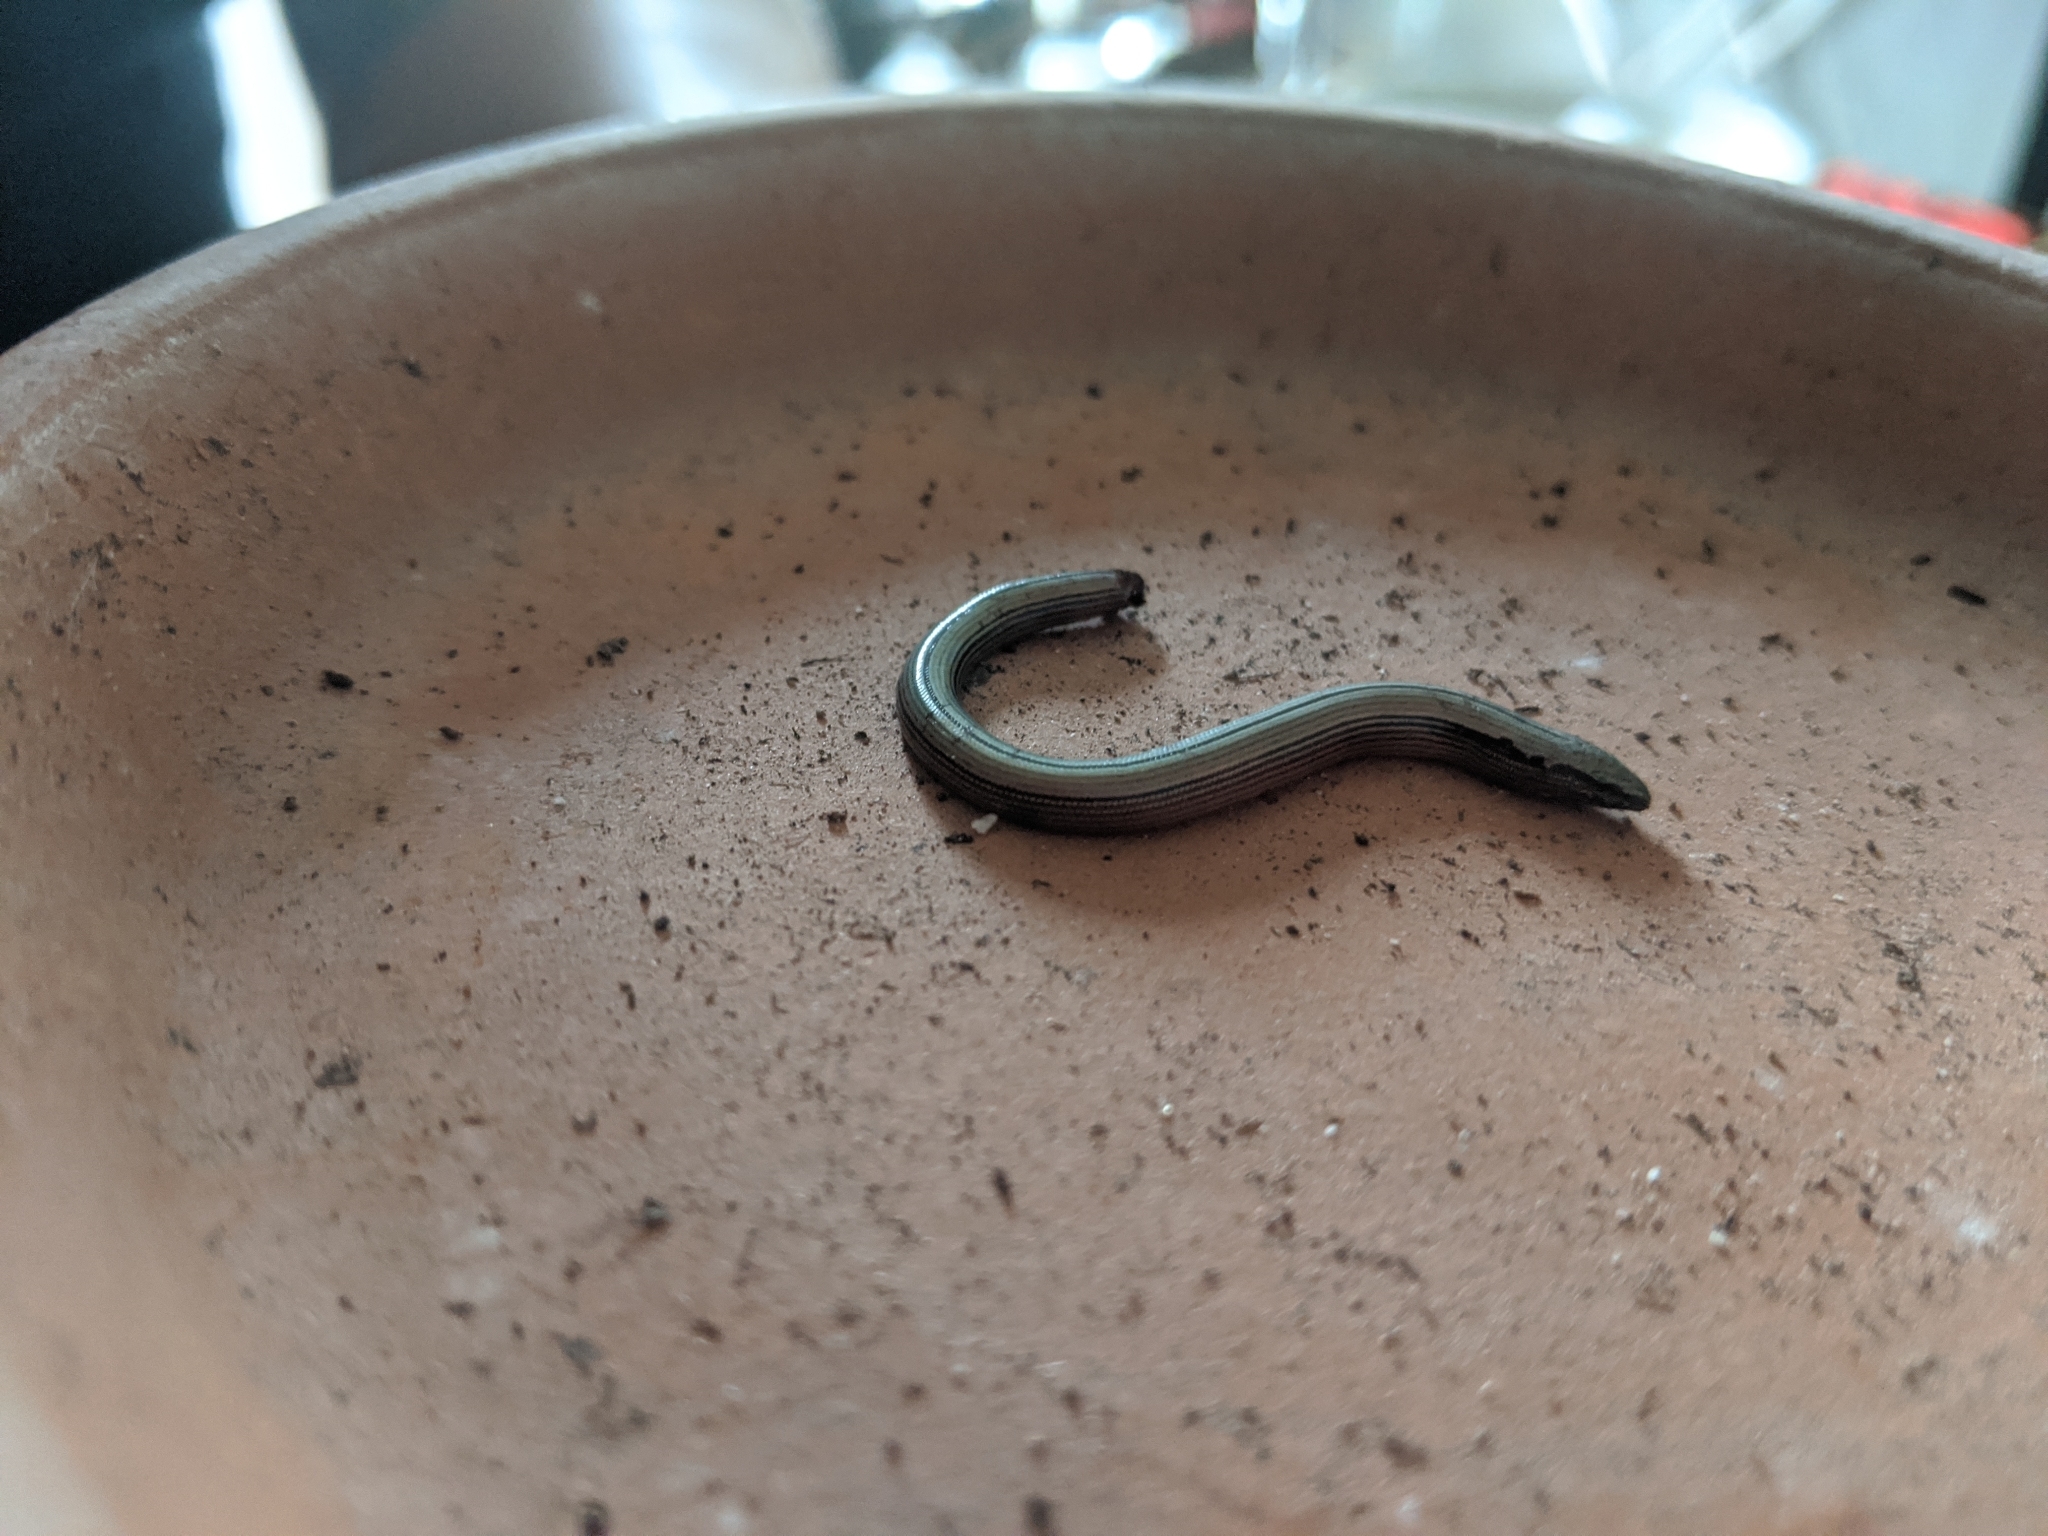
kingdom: Animalia
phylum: Chordata
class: Squamata
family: Anguidae
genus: Anniella
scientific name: Anniella pulchra
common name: California legless lizard
